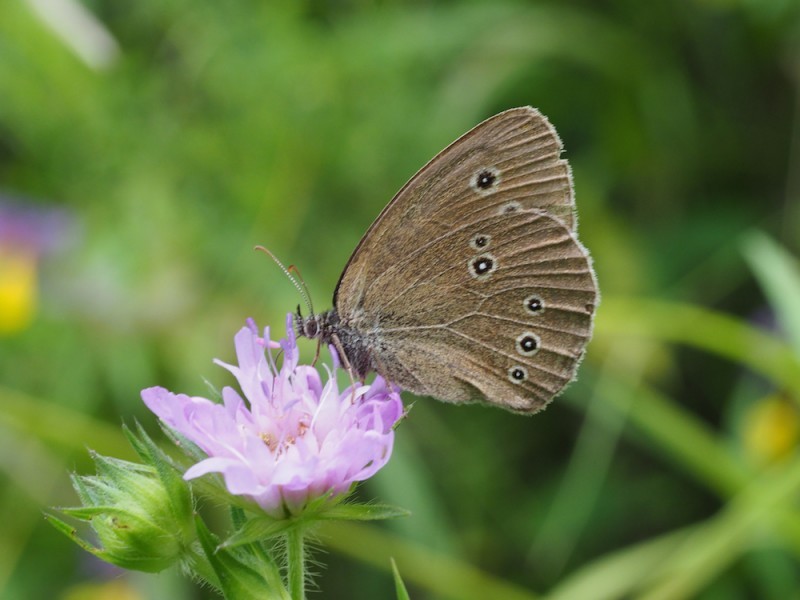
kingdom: Animalia
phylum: Arthropoda
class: Insecta
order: Lepidoptera
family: Nymphalidae
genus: Aphantopus
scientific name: Aphantopus hyperantus
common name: Ringlet
